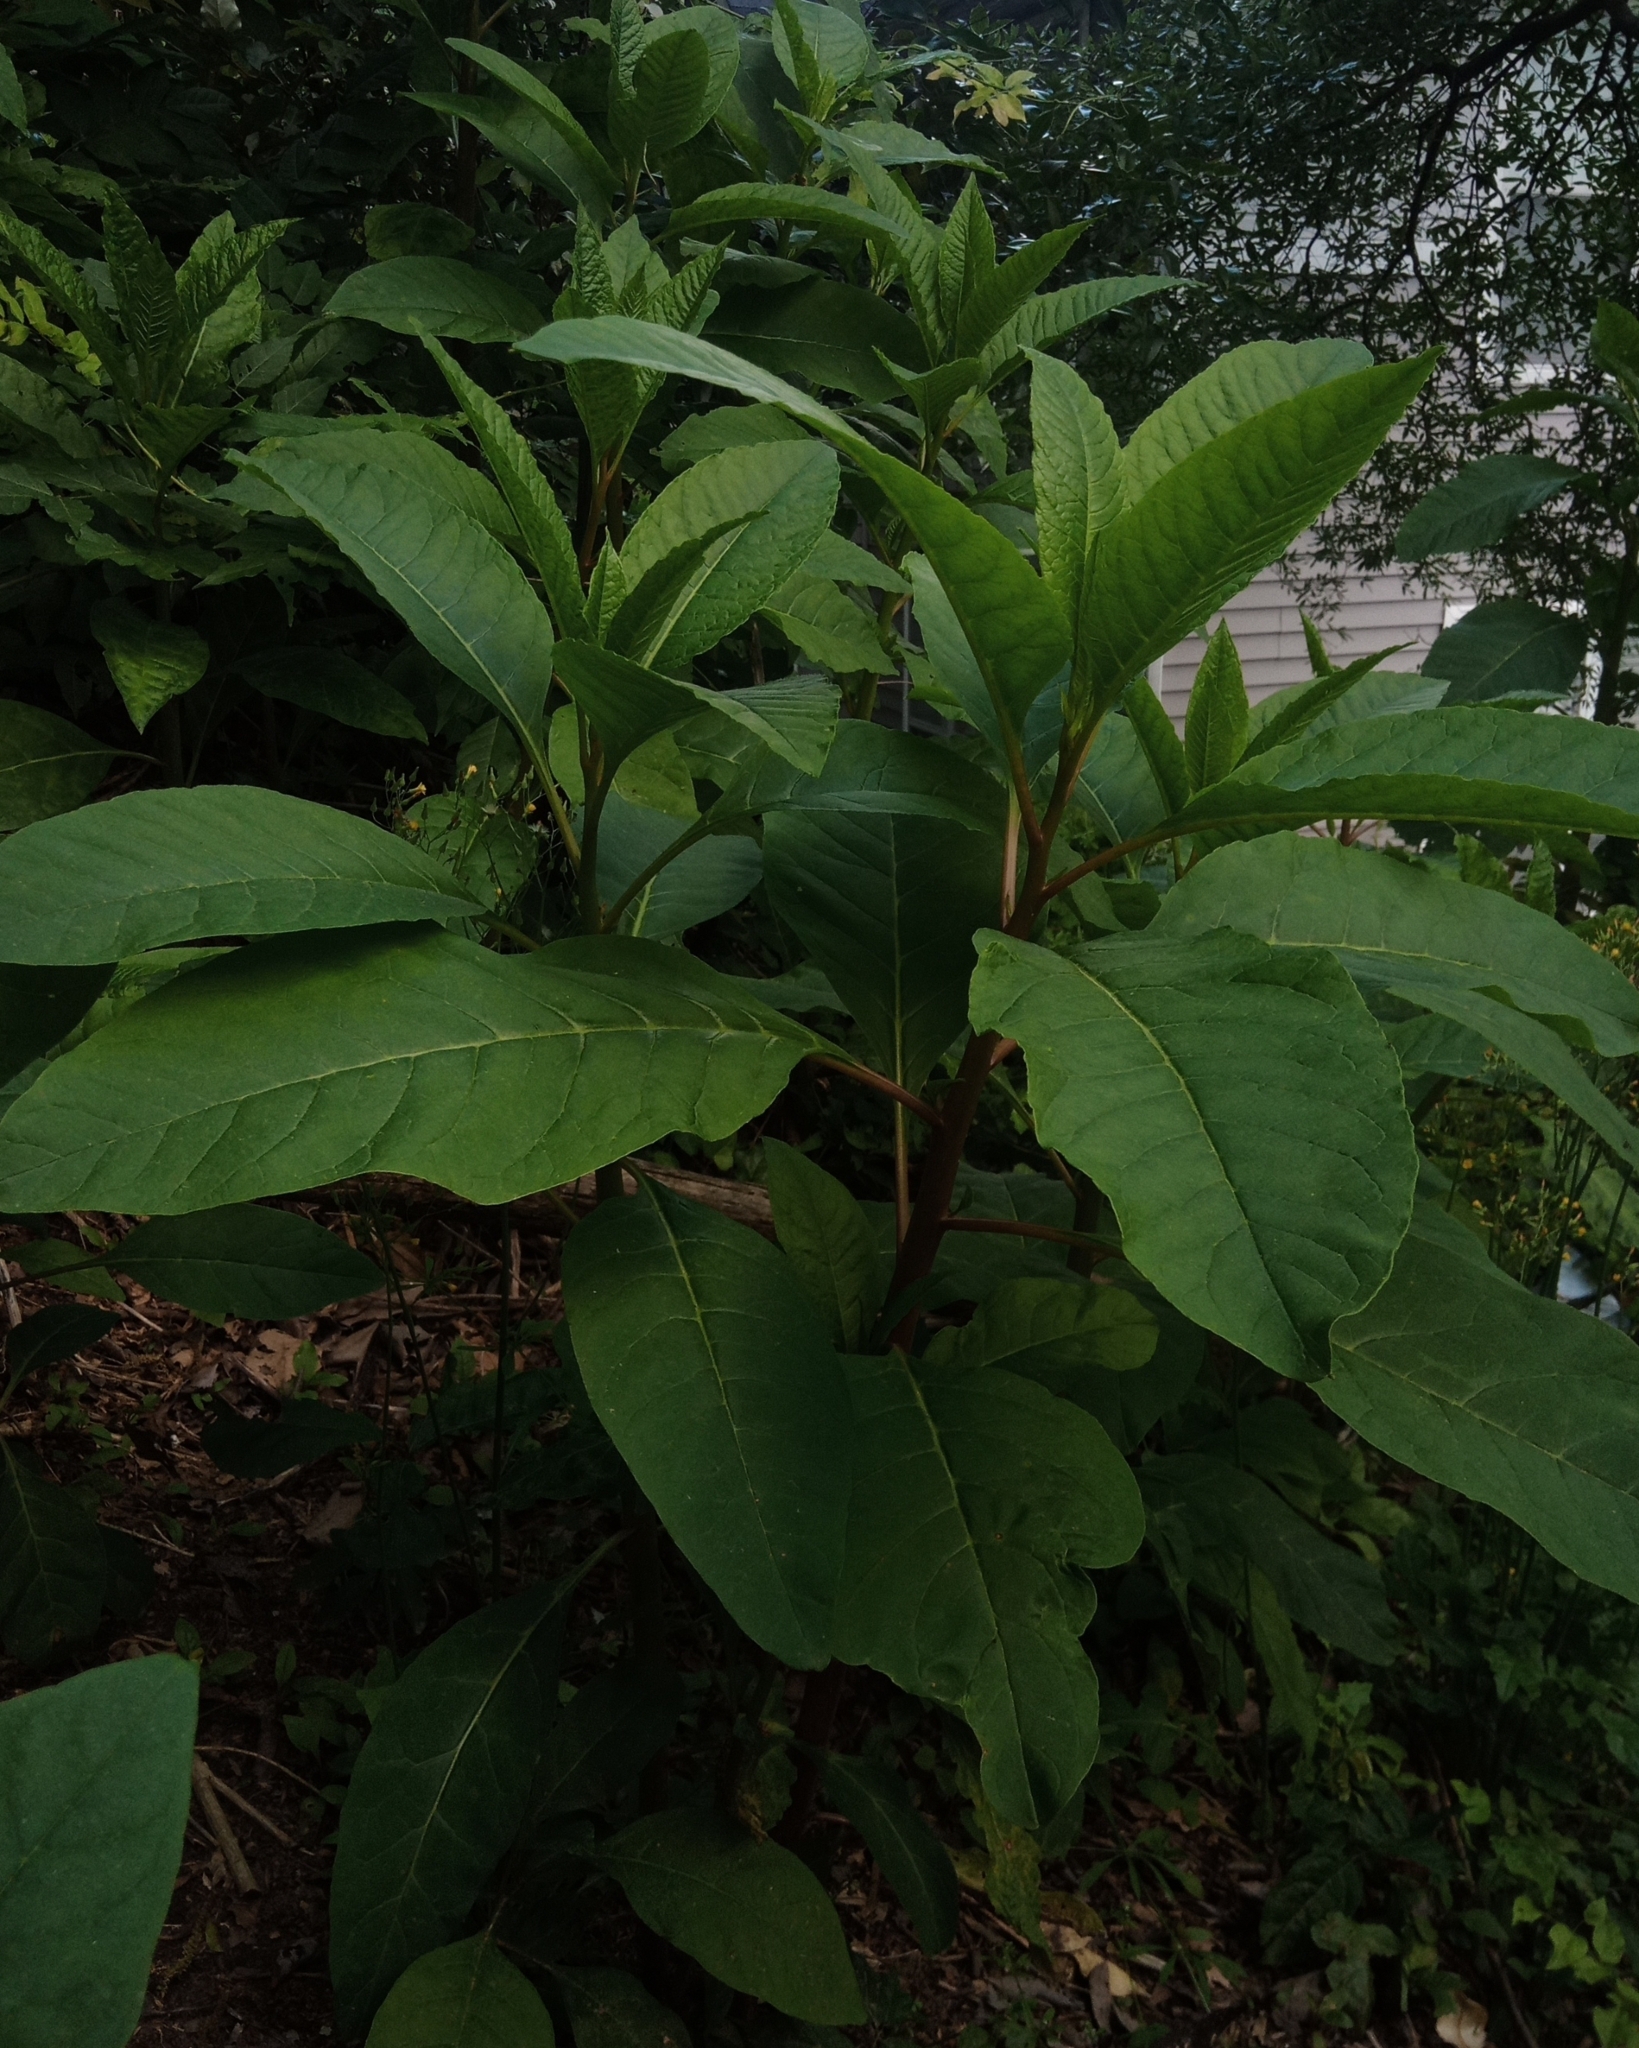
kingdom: Plantae
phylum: Tracheophyta
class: Magnoliopsida
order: Caryophyllales
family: Phytolaccaceae
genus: Phytolacca
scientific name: Phytolacca americana
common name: American pokeweed
